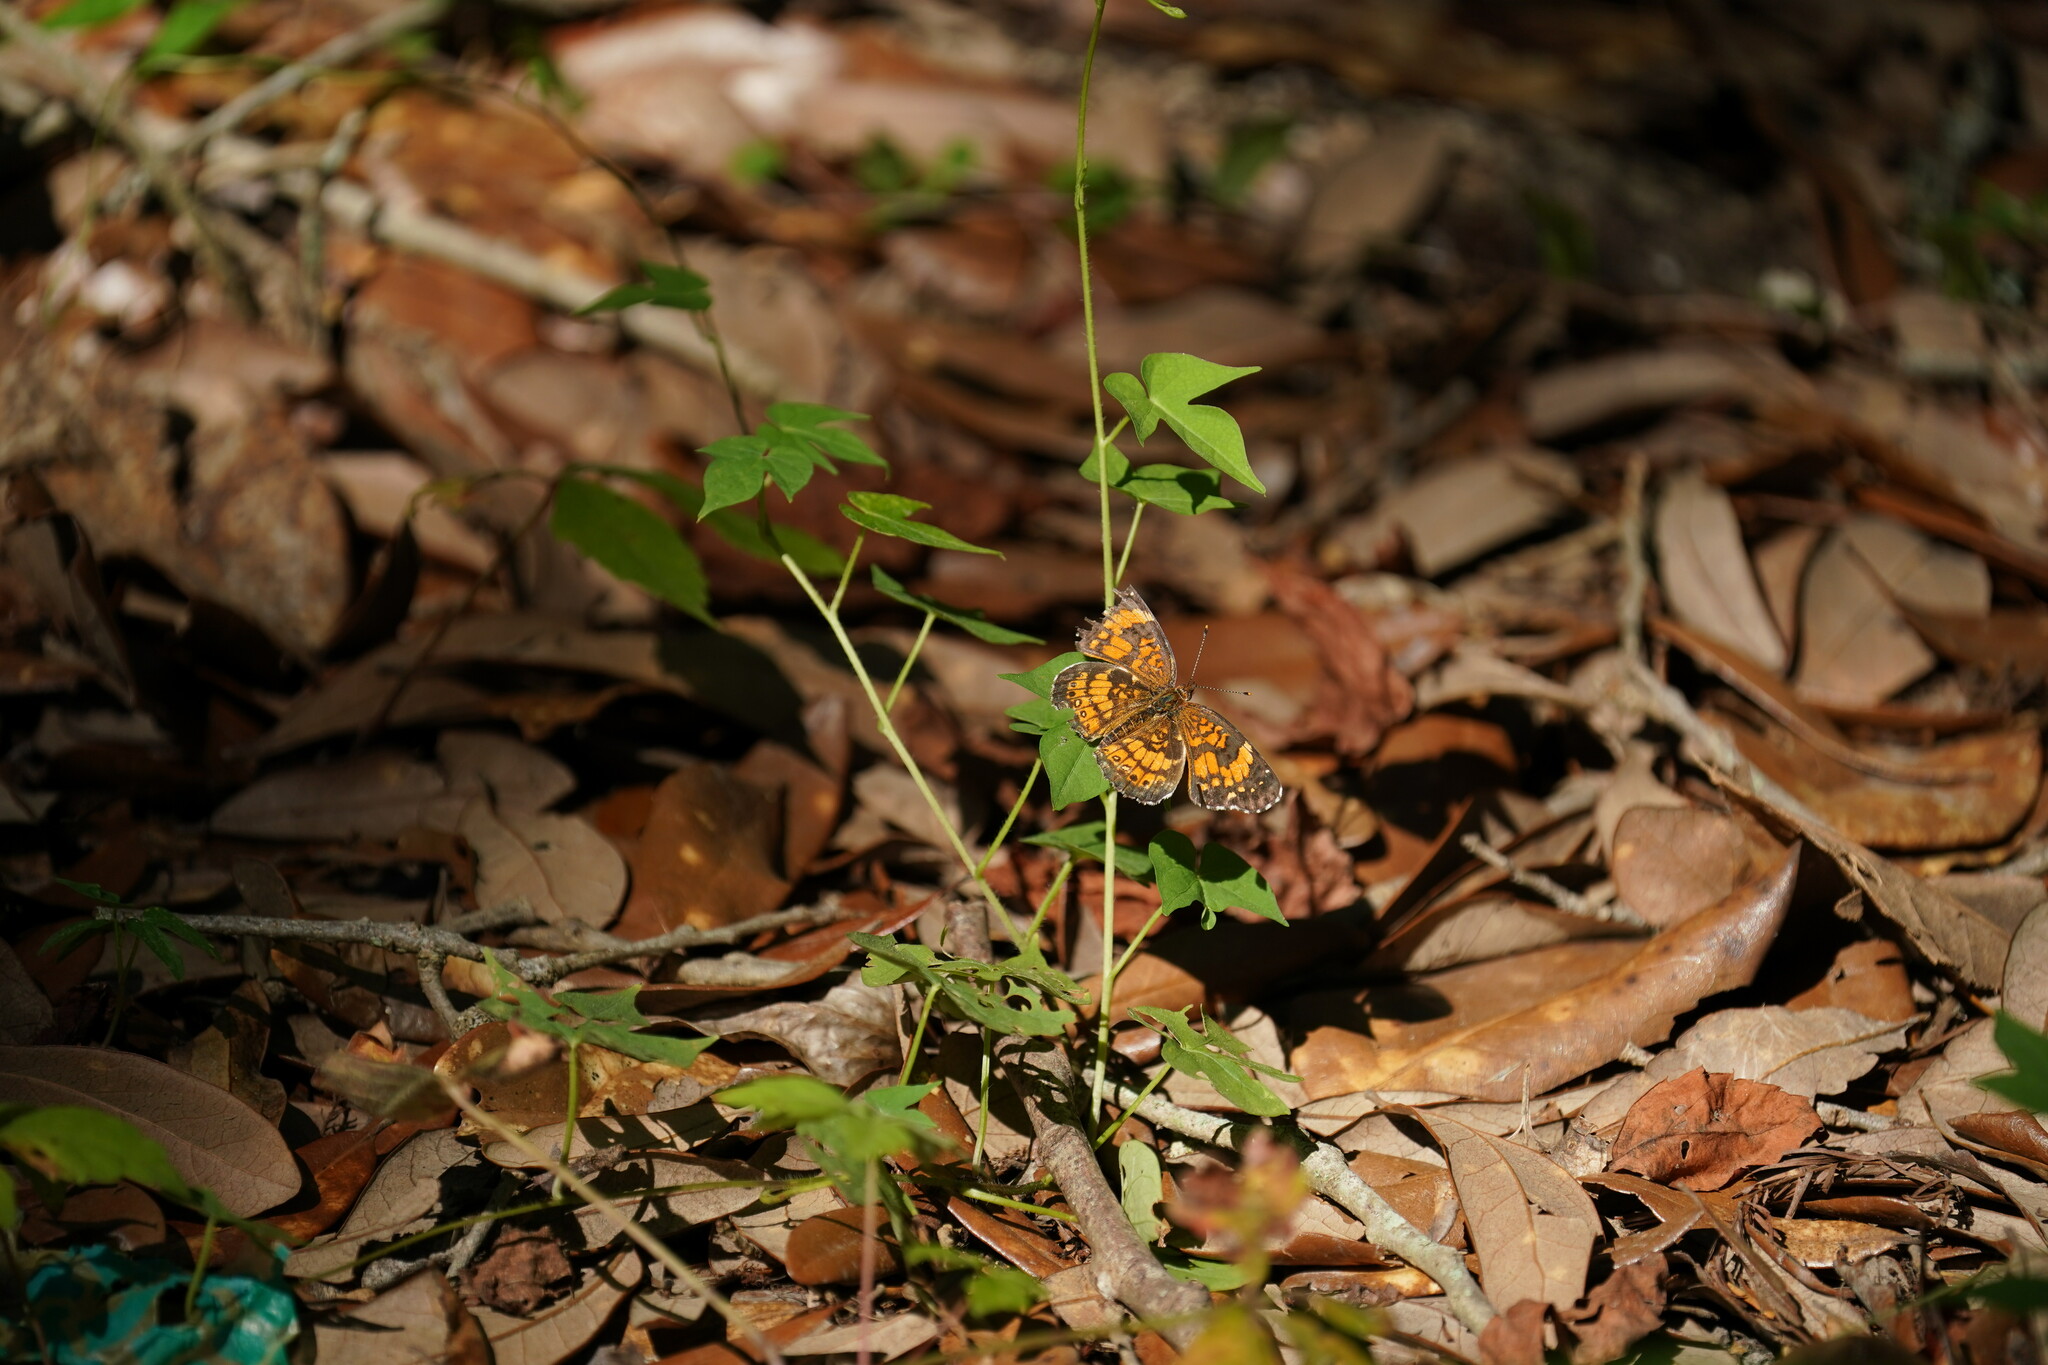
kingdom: Animalia
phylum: Arthropoda
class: Insecta
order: Lepidoptera
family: Nymphalidae
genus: Phyciodes
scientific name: Phyciodes tharos
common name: Pearl crescent
